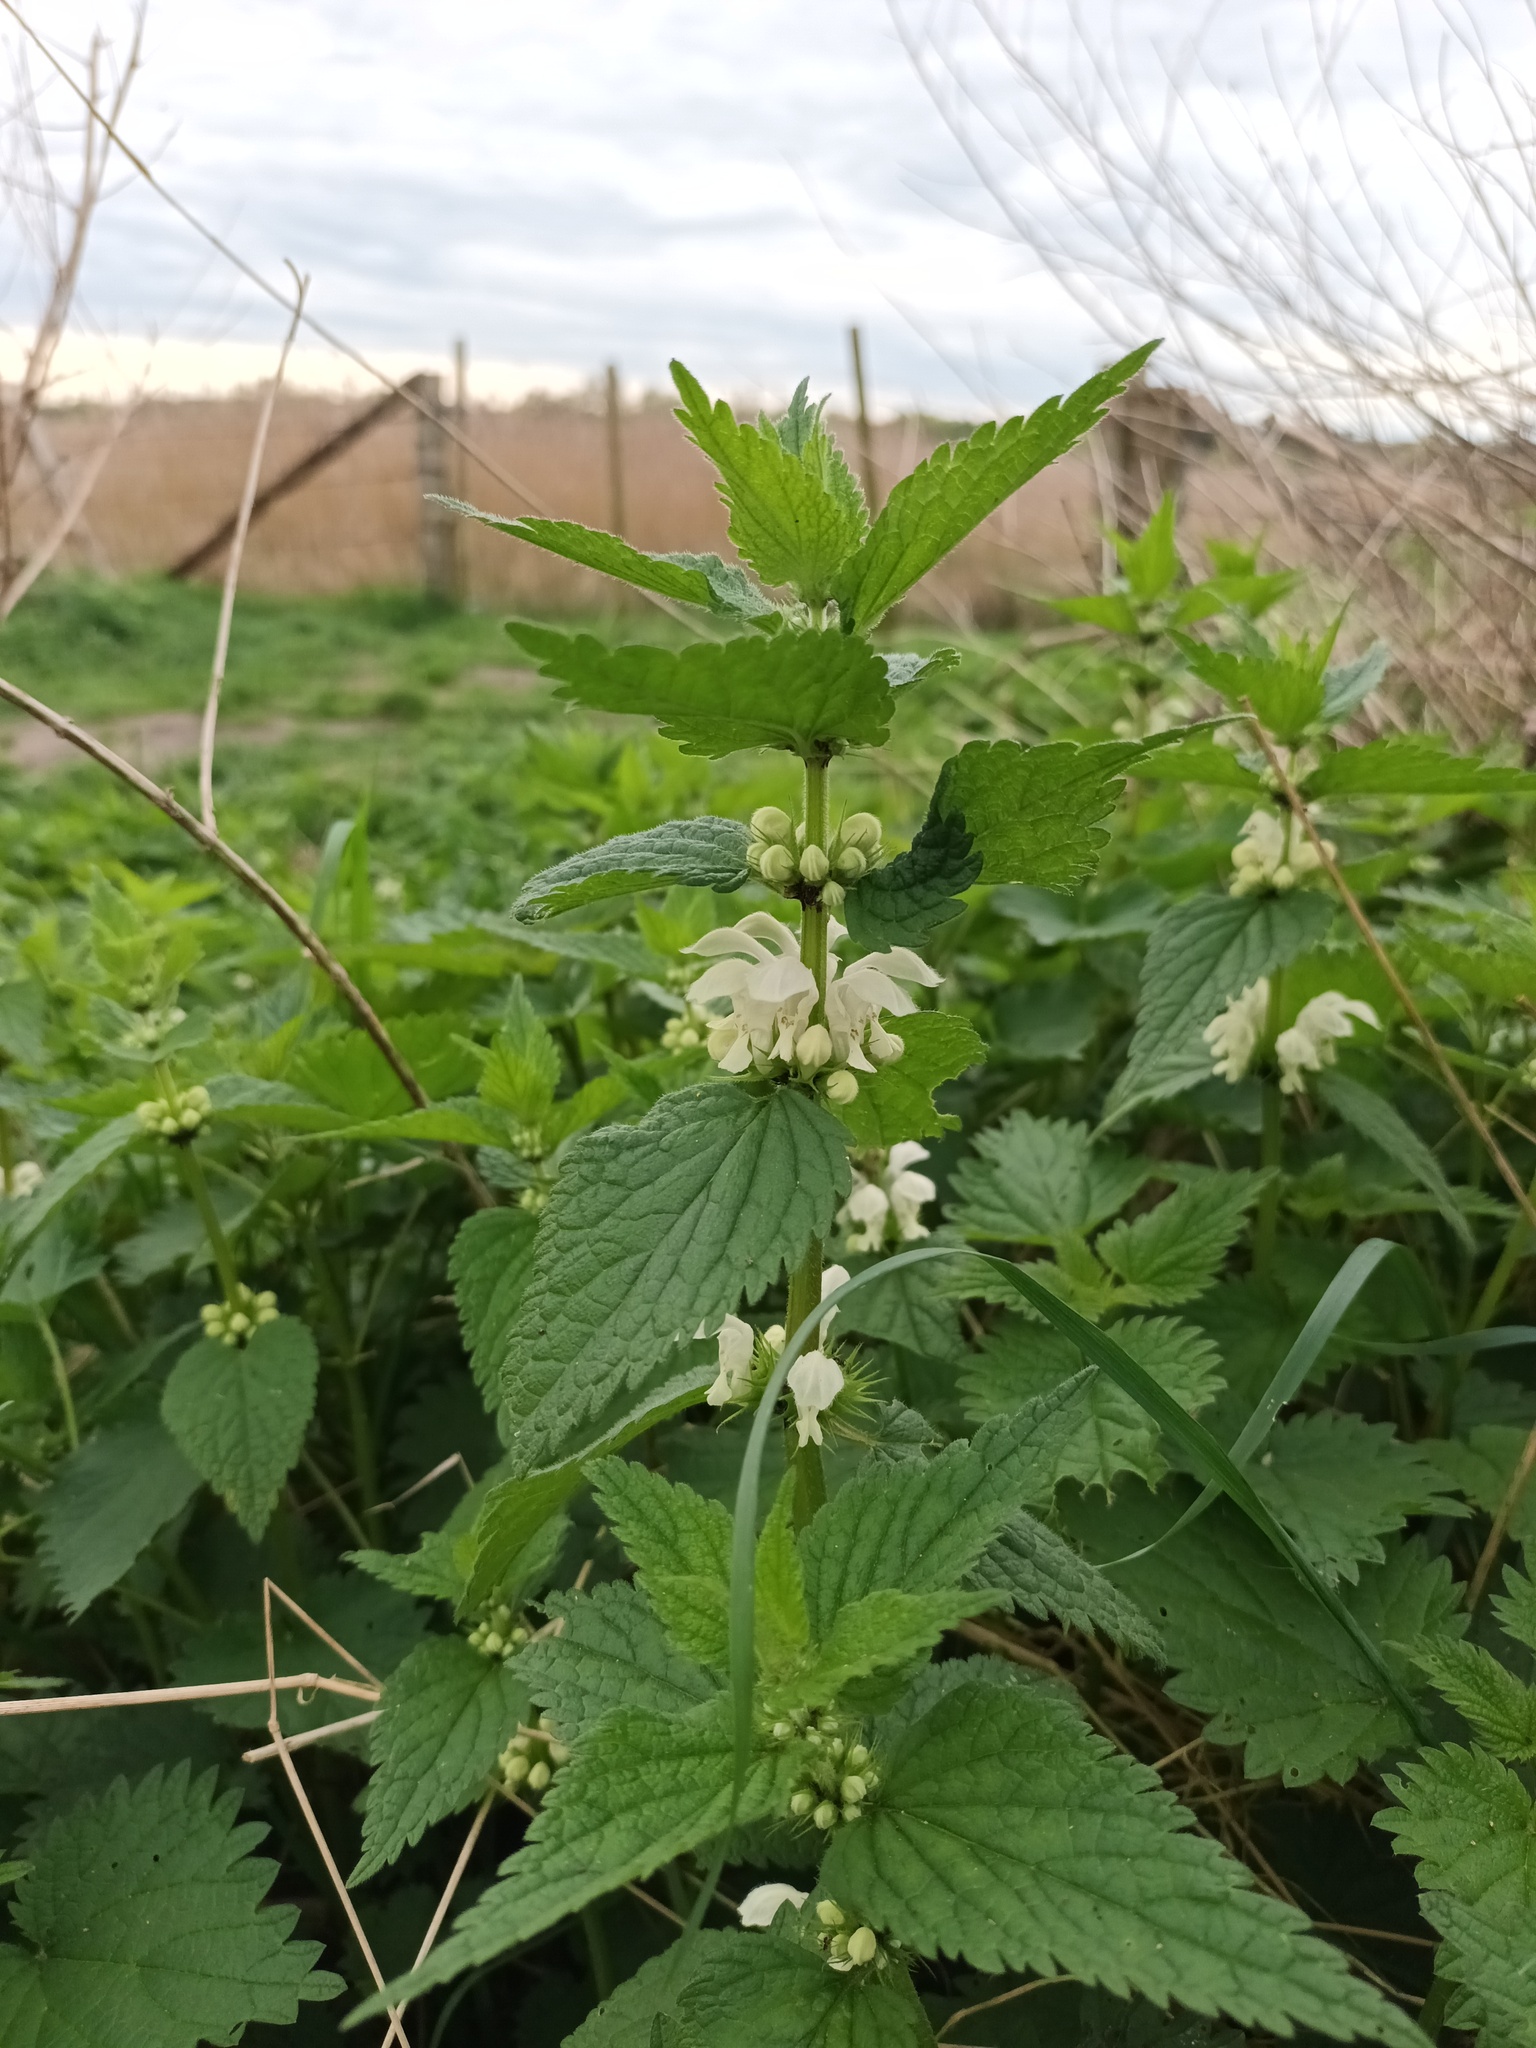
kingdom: Plantae
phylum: Tracheophyta
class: Magnoliopsida
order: Lamiales
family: Lamiaceae
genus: Lamium
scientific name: Lamium album
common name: White dead-nettle
